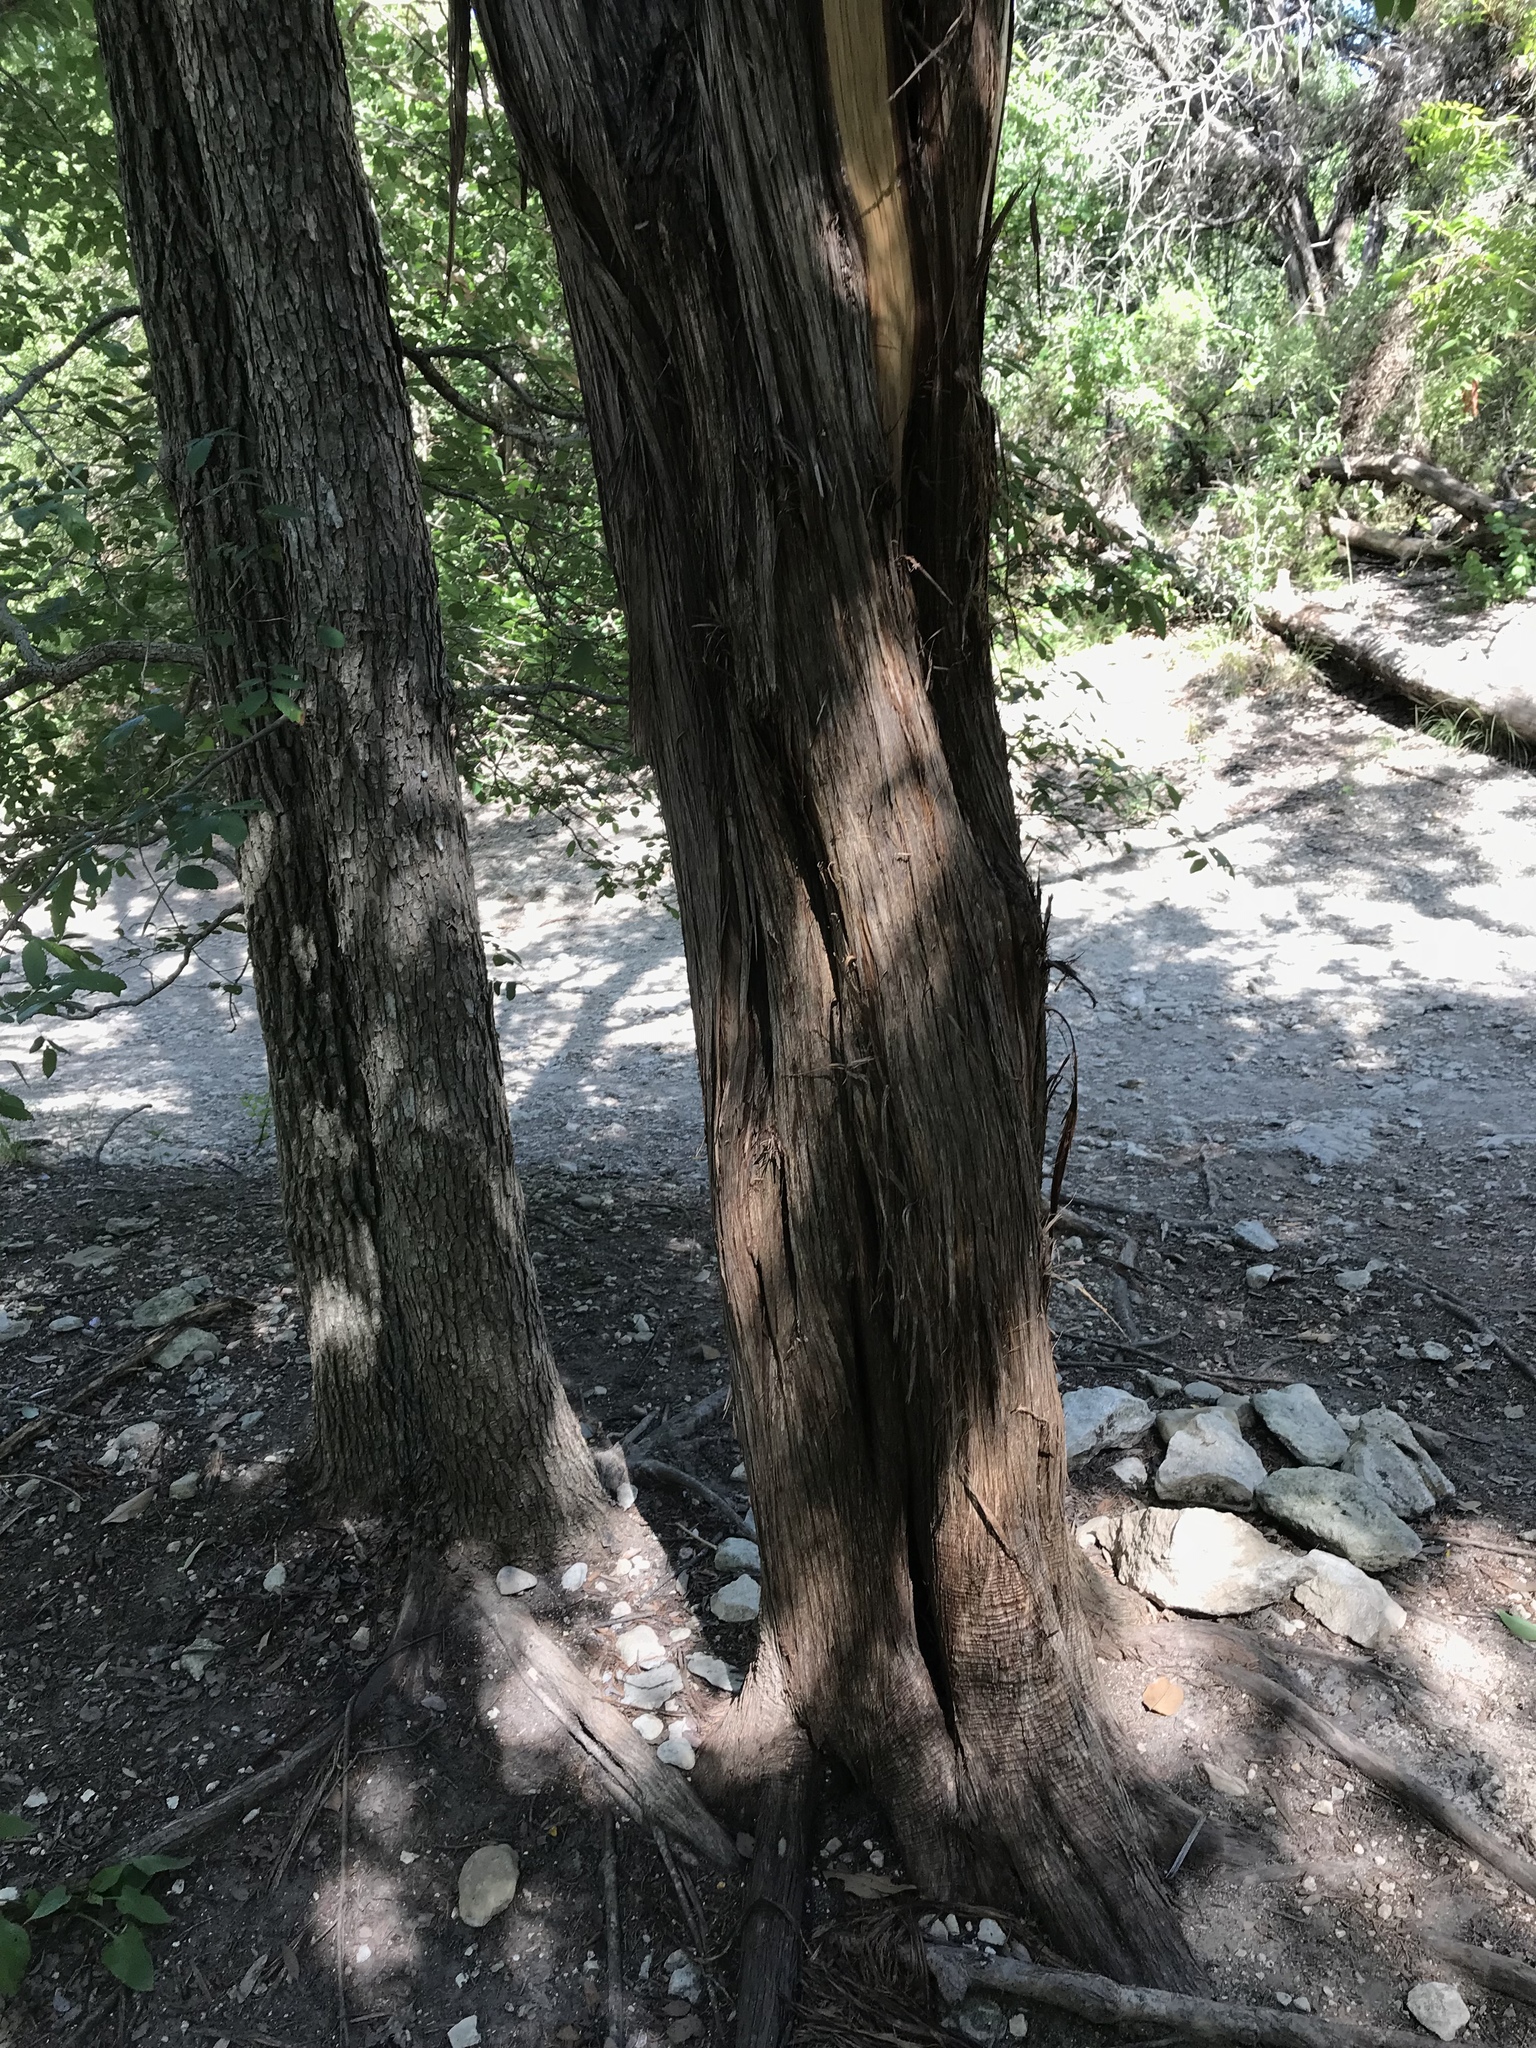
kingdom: Plantae
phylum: Tracheophyta
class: Pinopsida
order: Pinales
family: Cupressaceae
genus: Juniperus
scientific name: Juniperus ashei
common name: Mexican juniper
